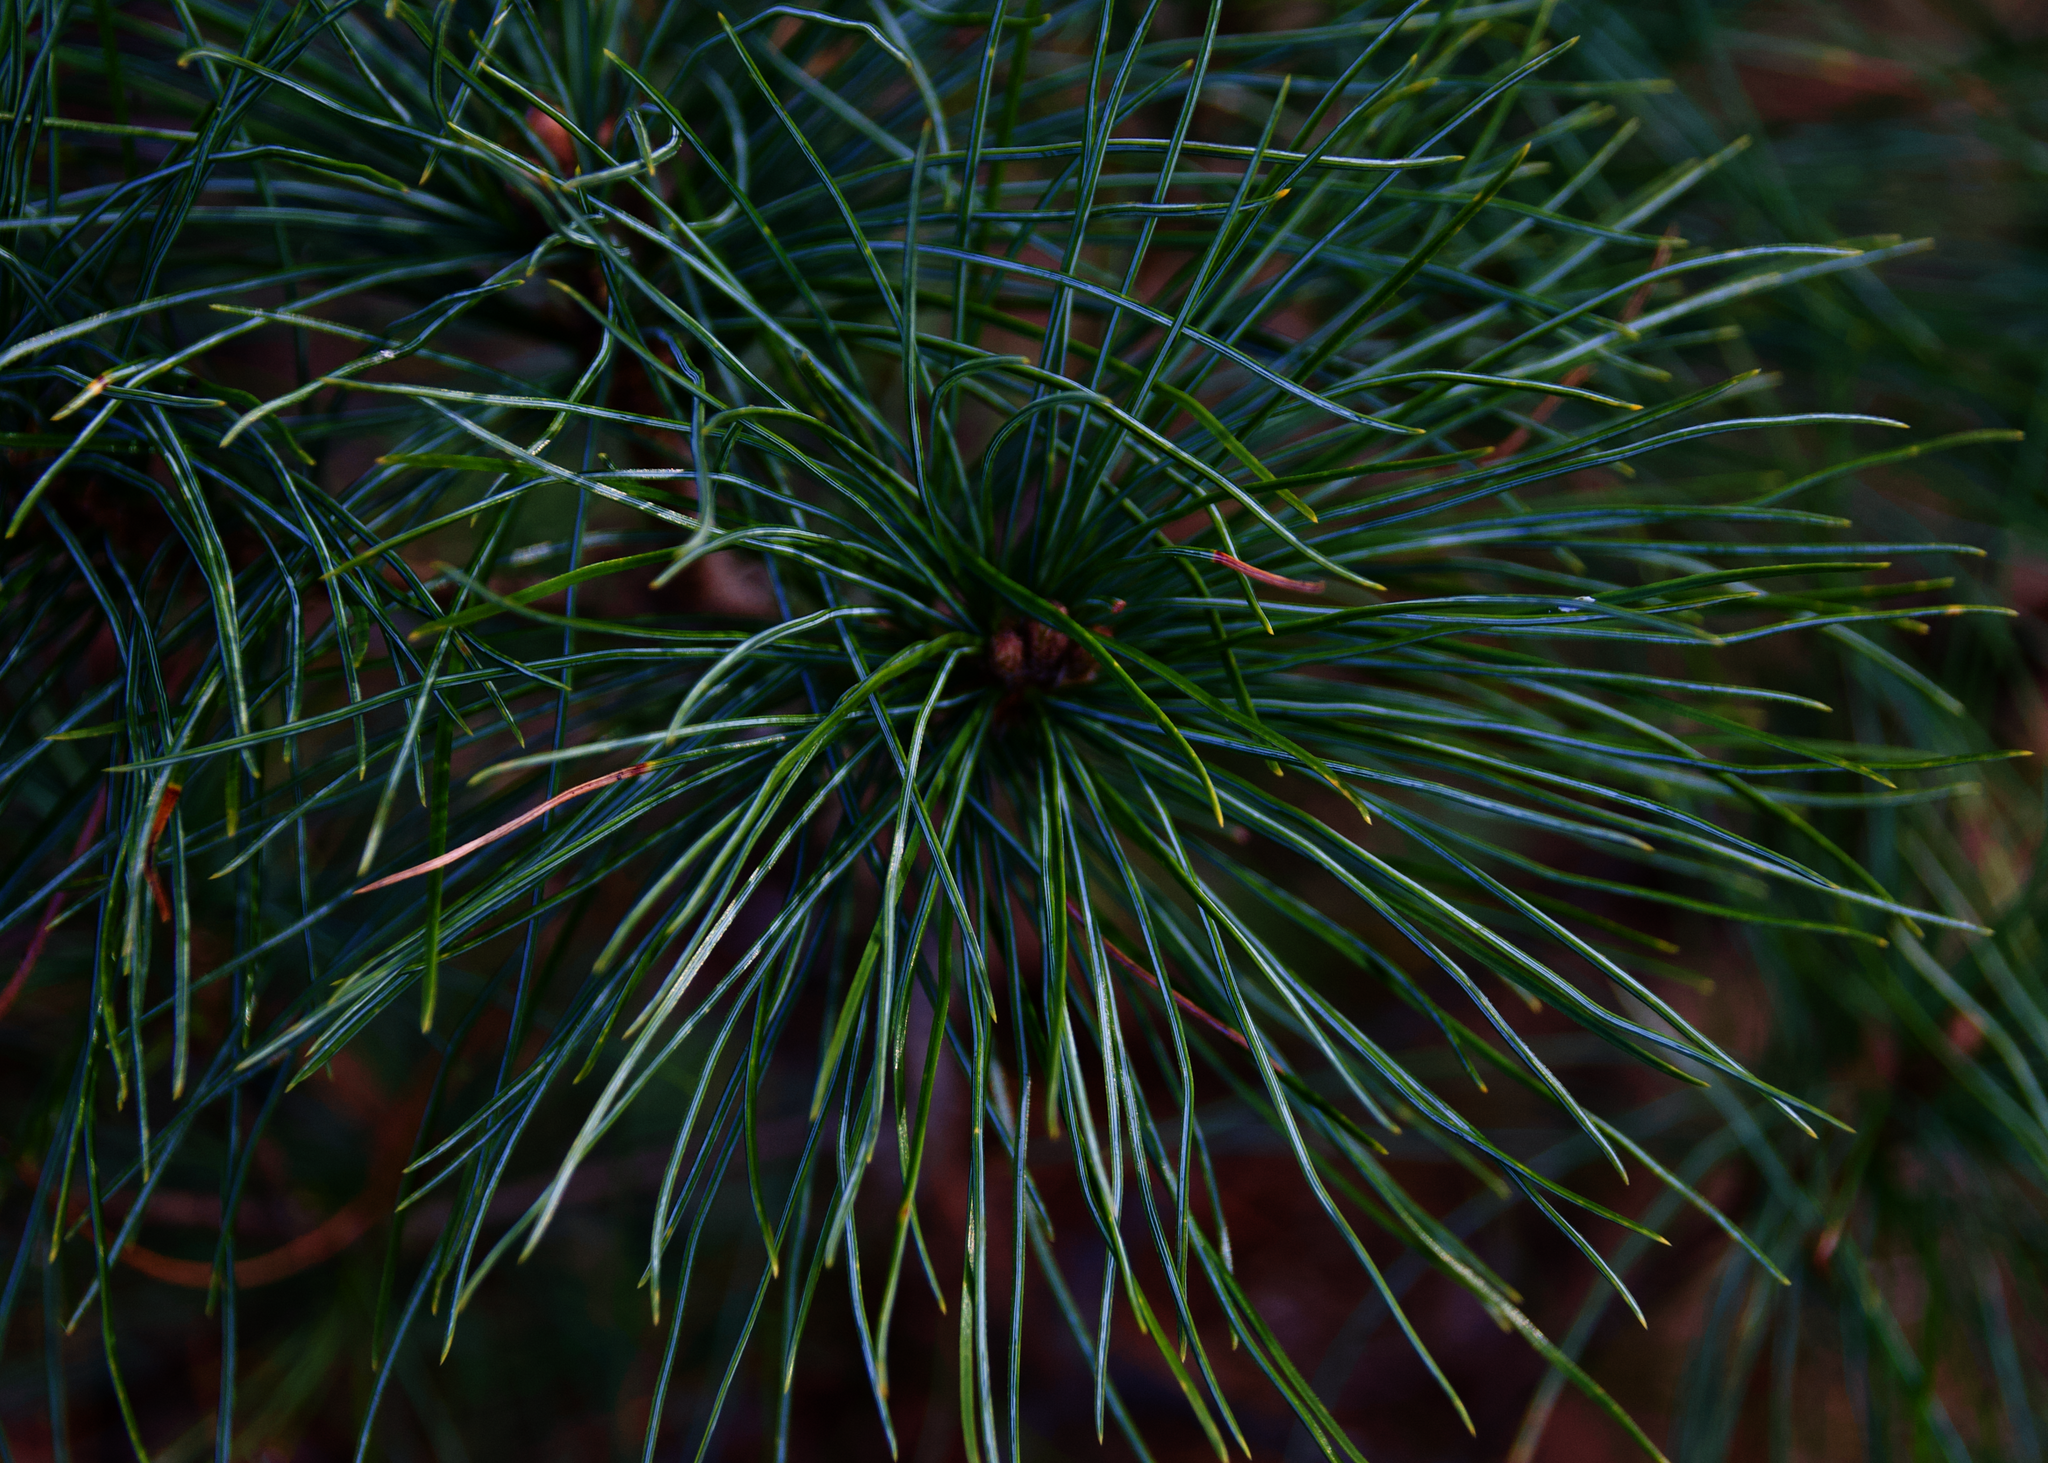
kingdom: Plantae
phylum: Tracheophyta
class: Pinopsida
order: Pinales
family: Pinaceae
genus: Pinus
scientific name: Pinus strobus
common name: Weymouth pine
